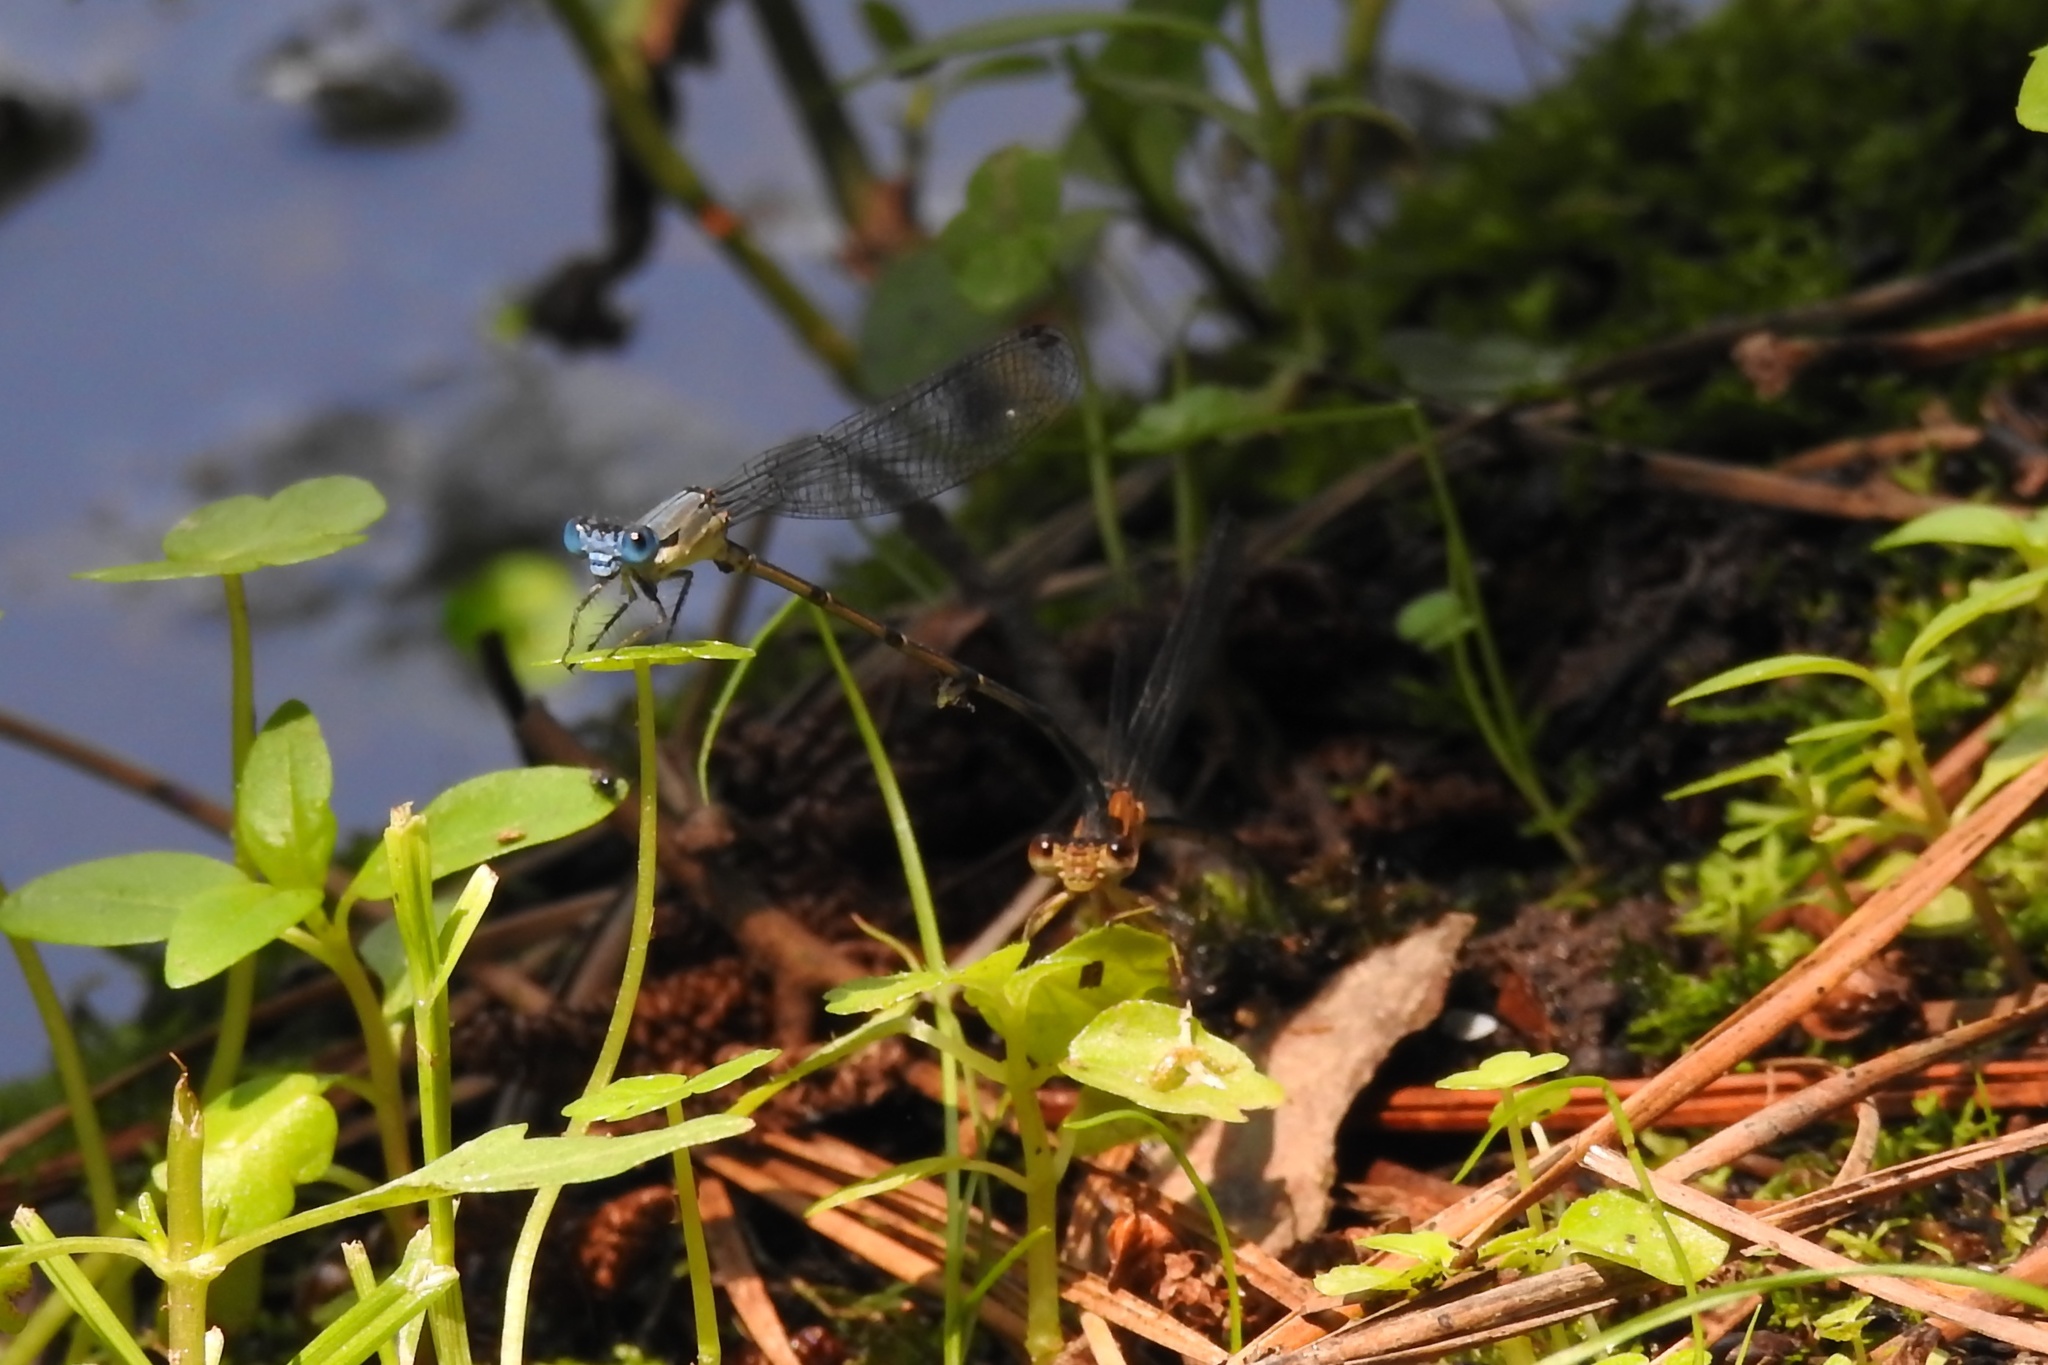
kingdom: Animalia
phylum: Arthropoda
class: Insecta
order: Odonata
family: Coenagrionidae
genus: Argia
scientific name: Argia apicalis
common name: Blue-fronted dancer
